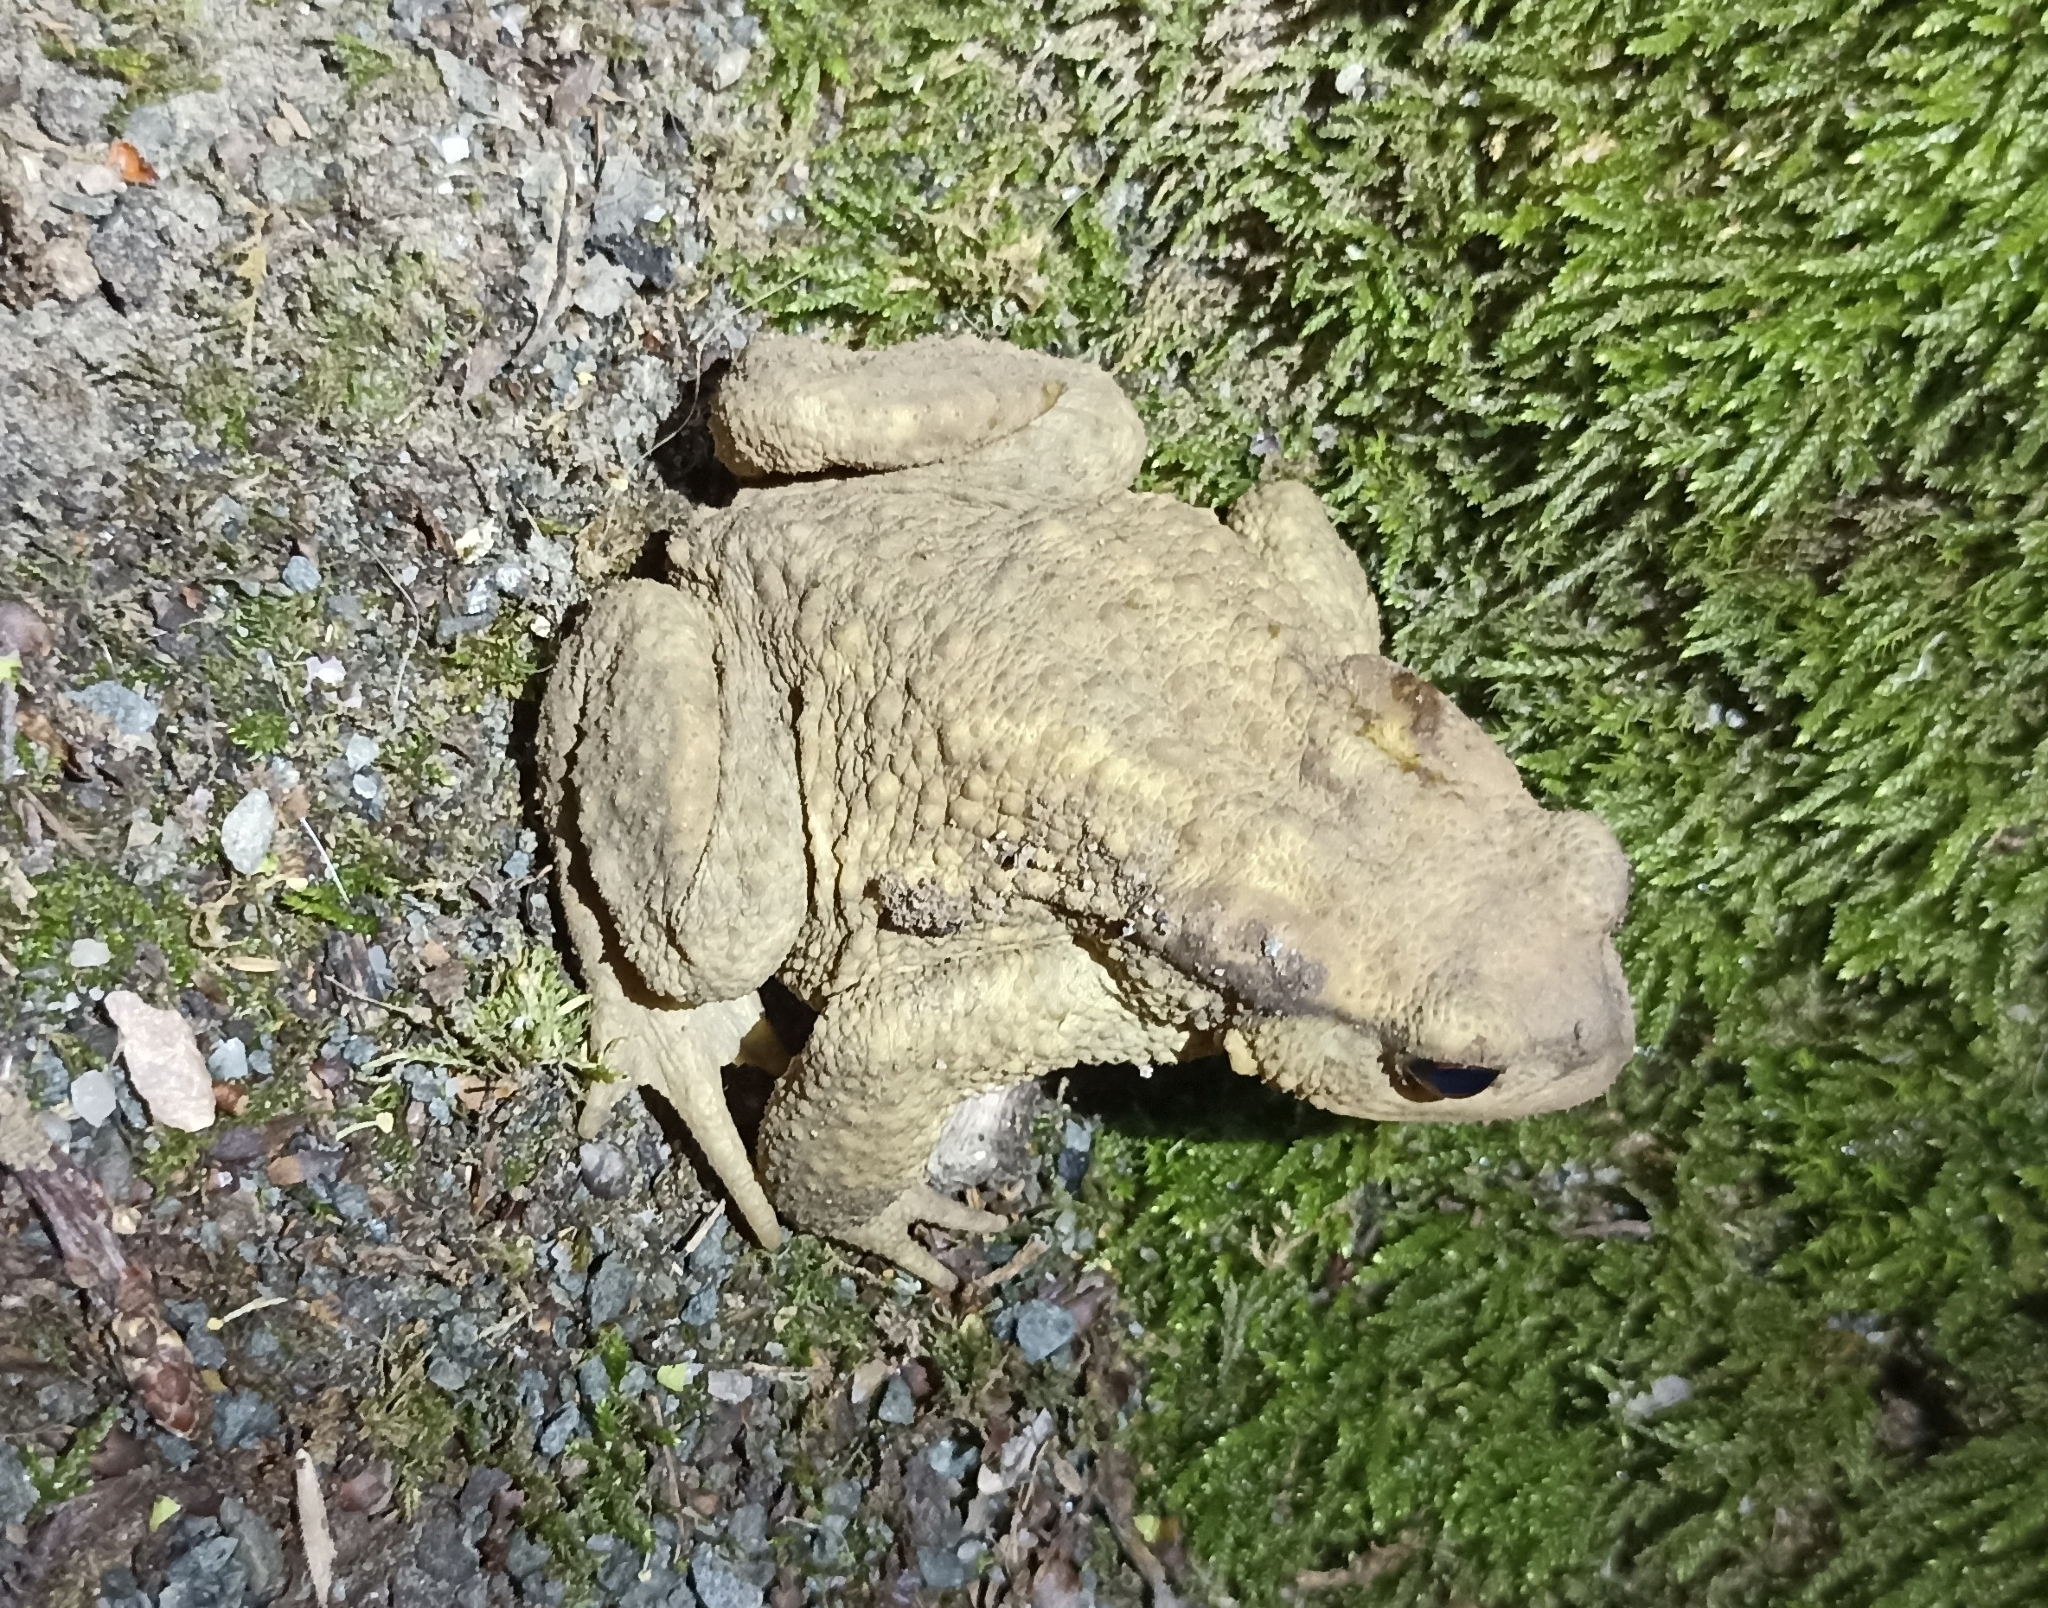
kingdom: Animalia
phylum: Chordata
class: Amphibia
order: Anura
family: Bufonidae
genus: Bufo
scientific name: Bufo spinosus
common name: Western common toad
